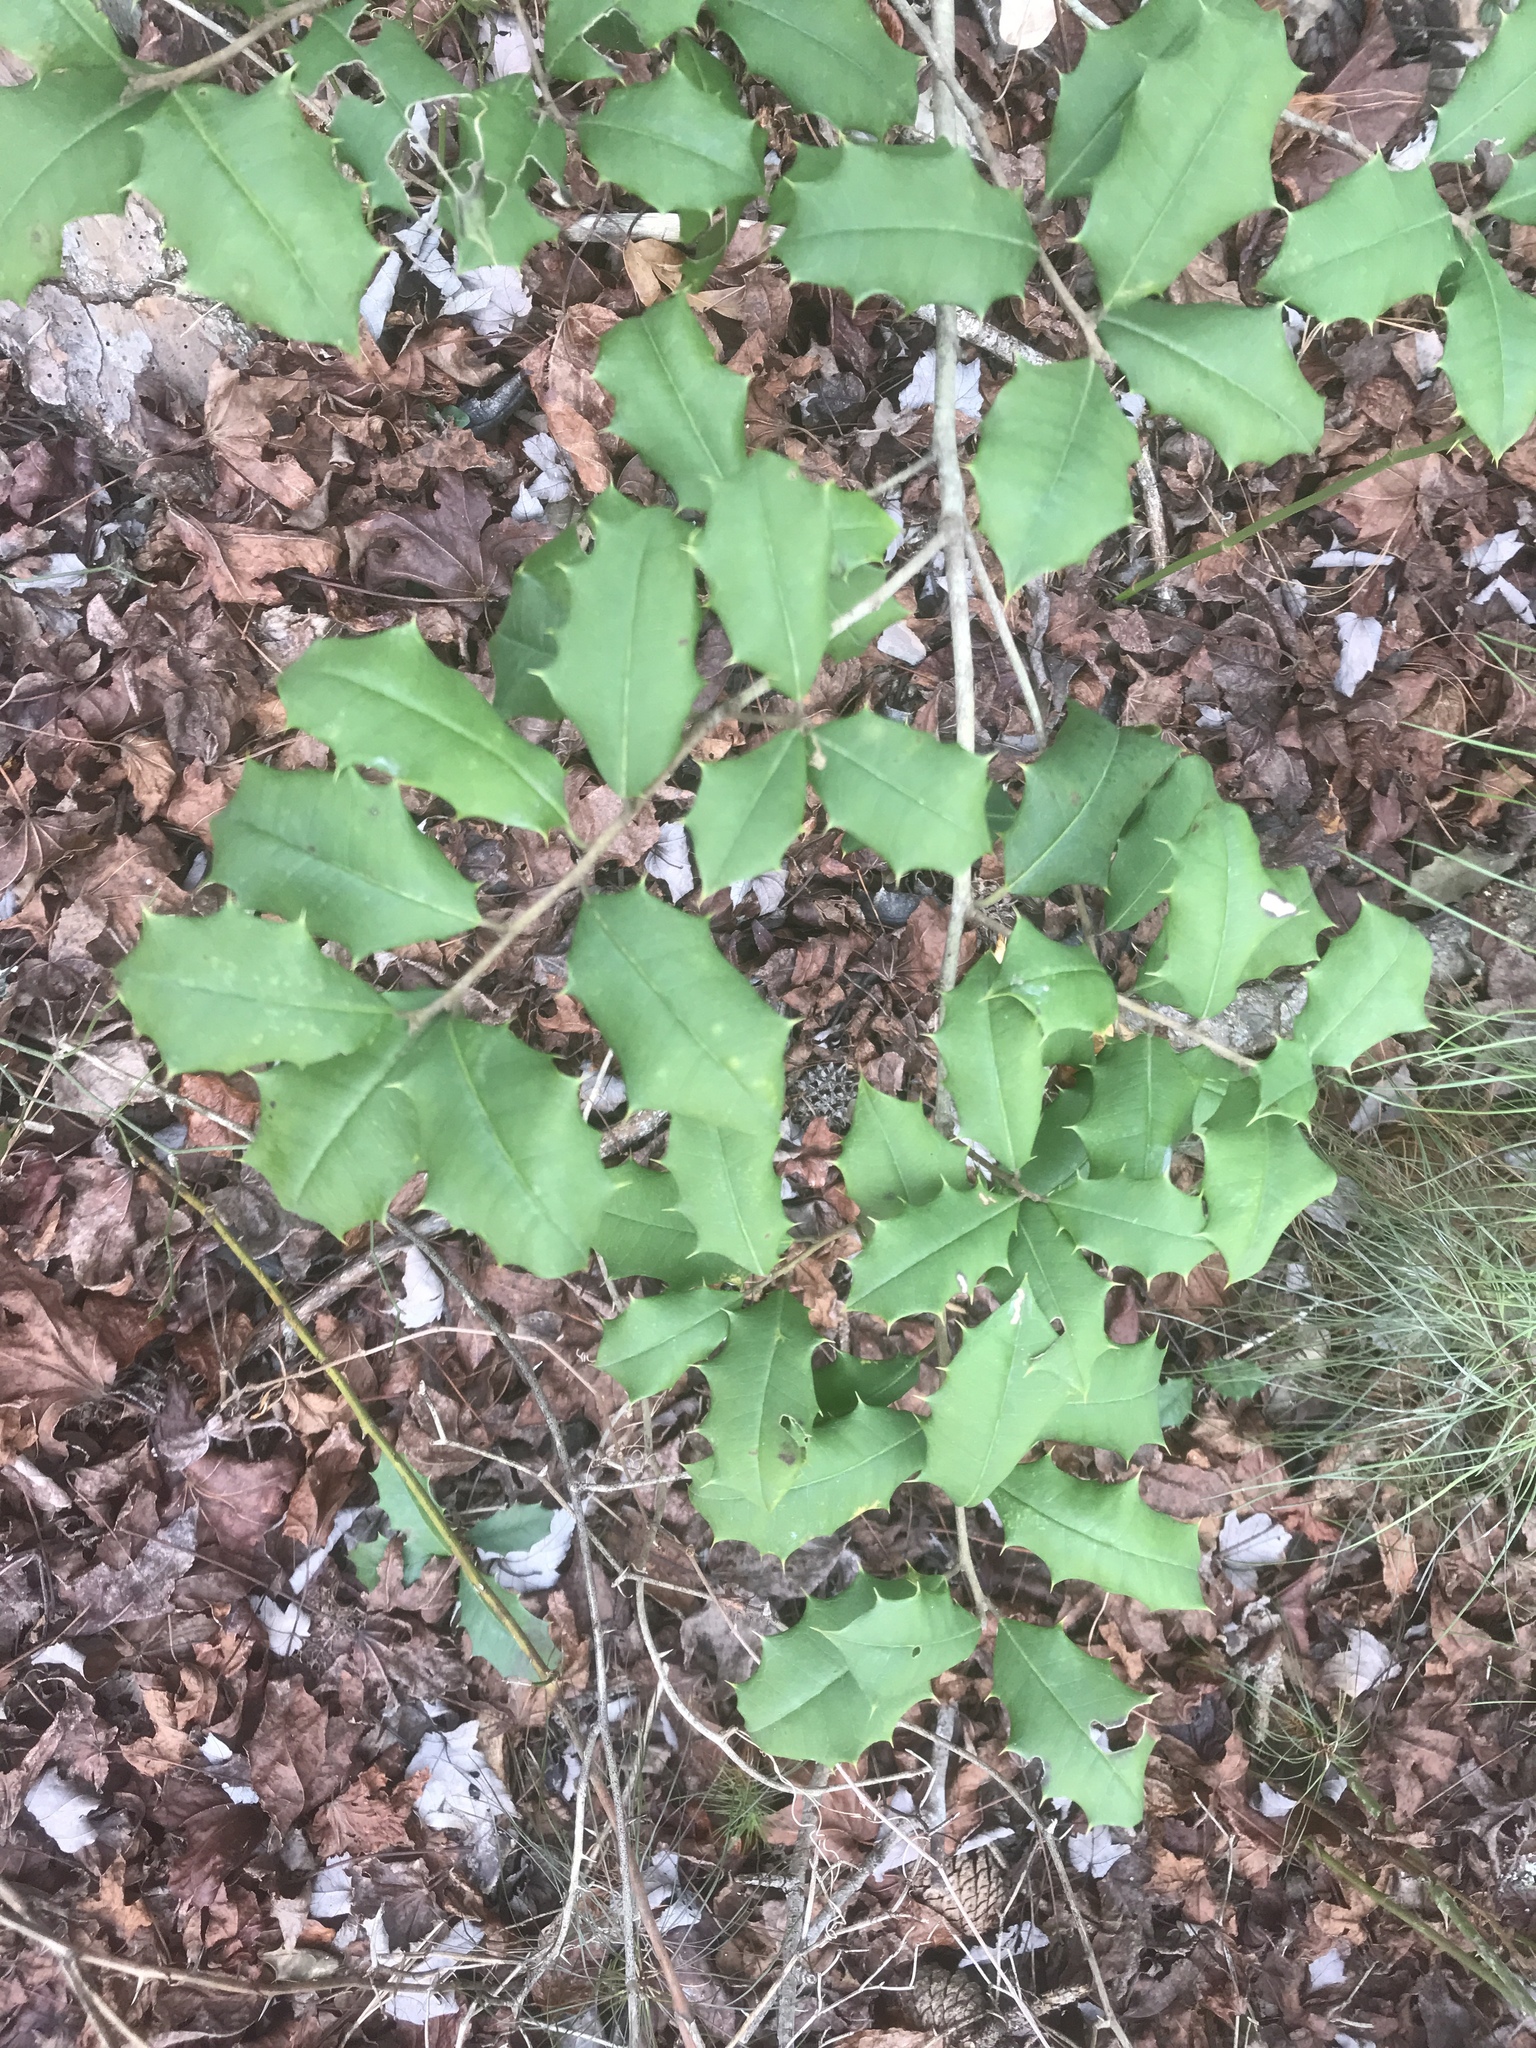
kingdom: Plantae
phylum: Tracheophyta
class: Magnoliopsida
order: Aquifoliales
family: Aquifoliaceae
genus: Ilex
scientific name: Ilex opaca
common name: American holly
